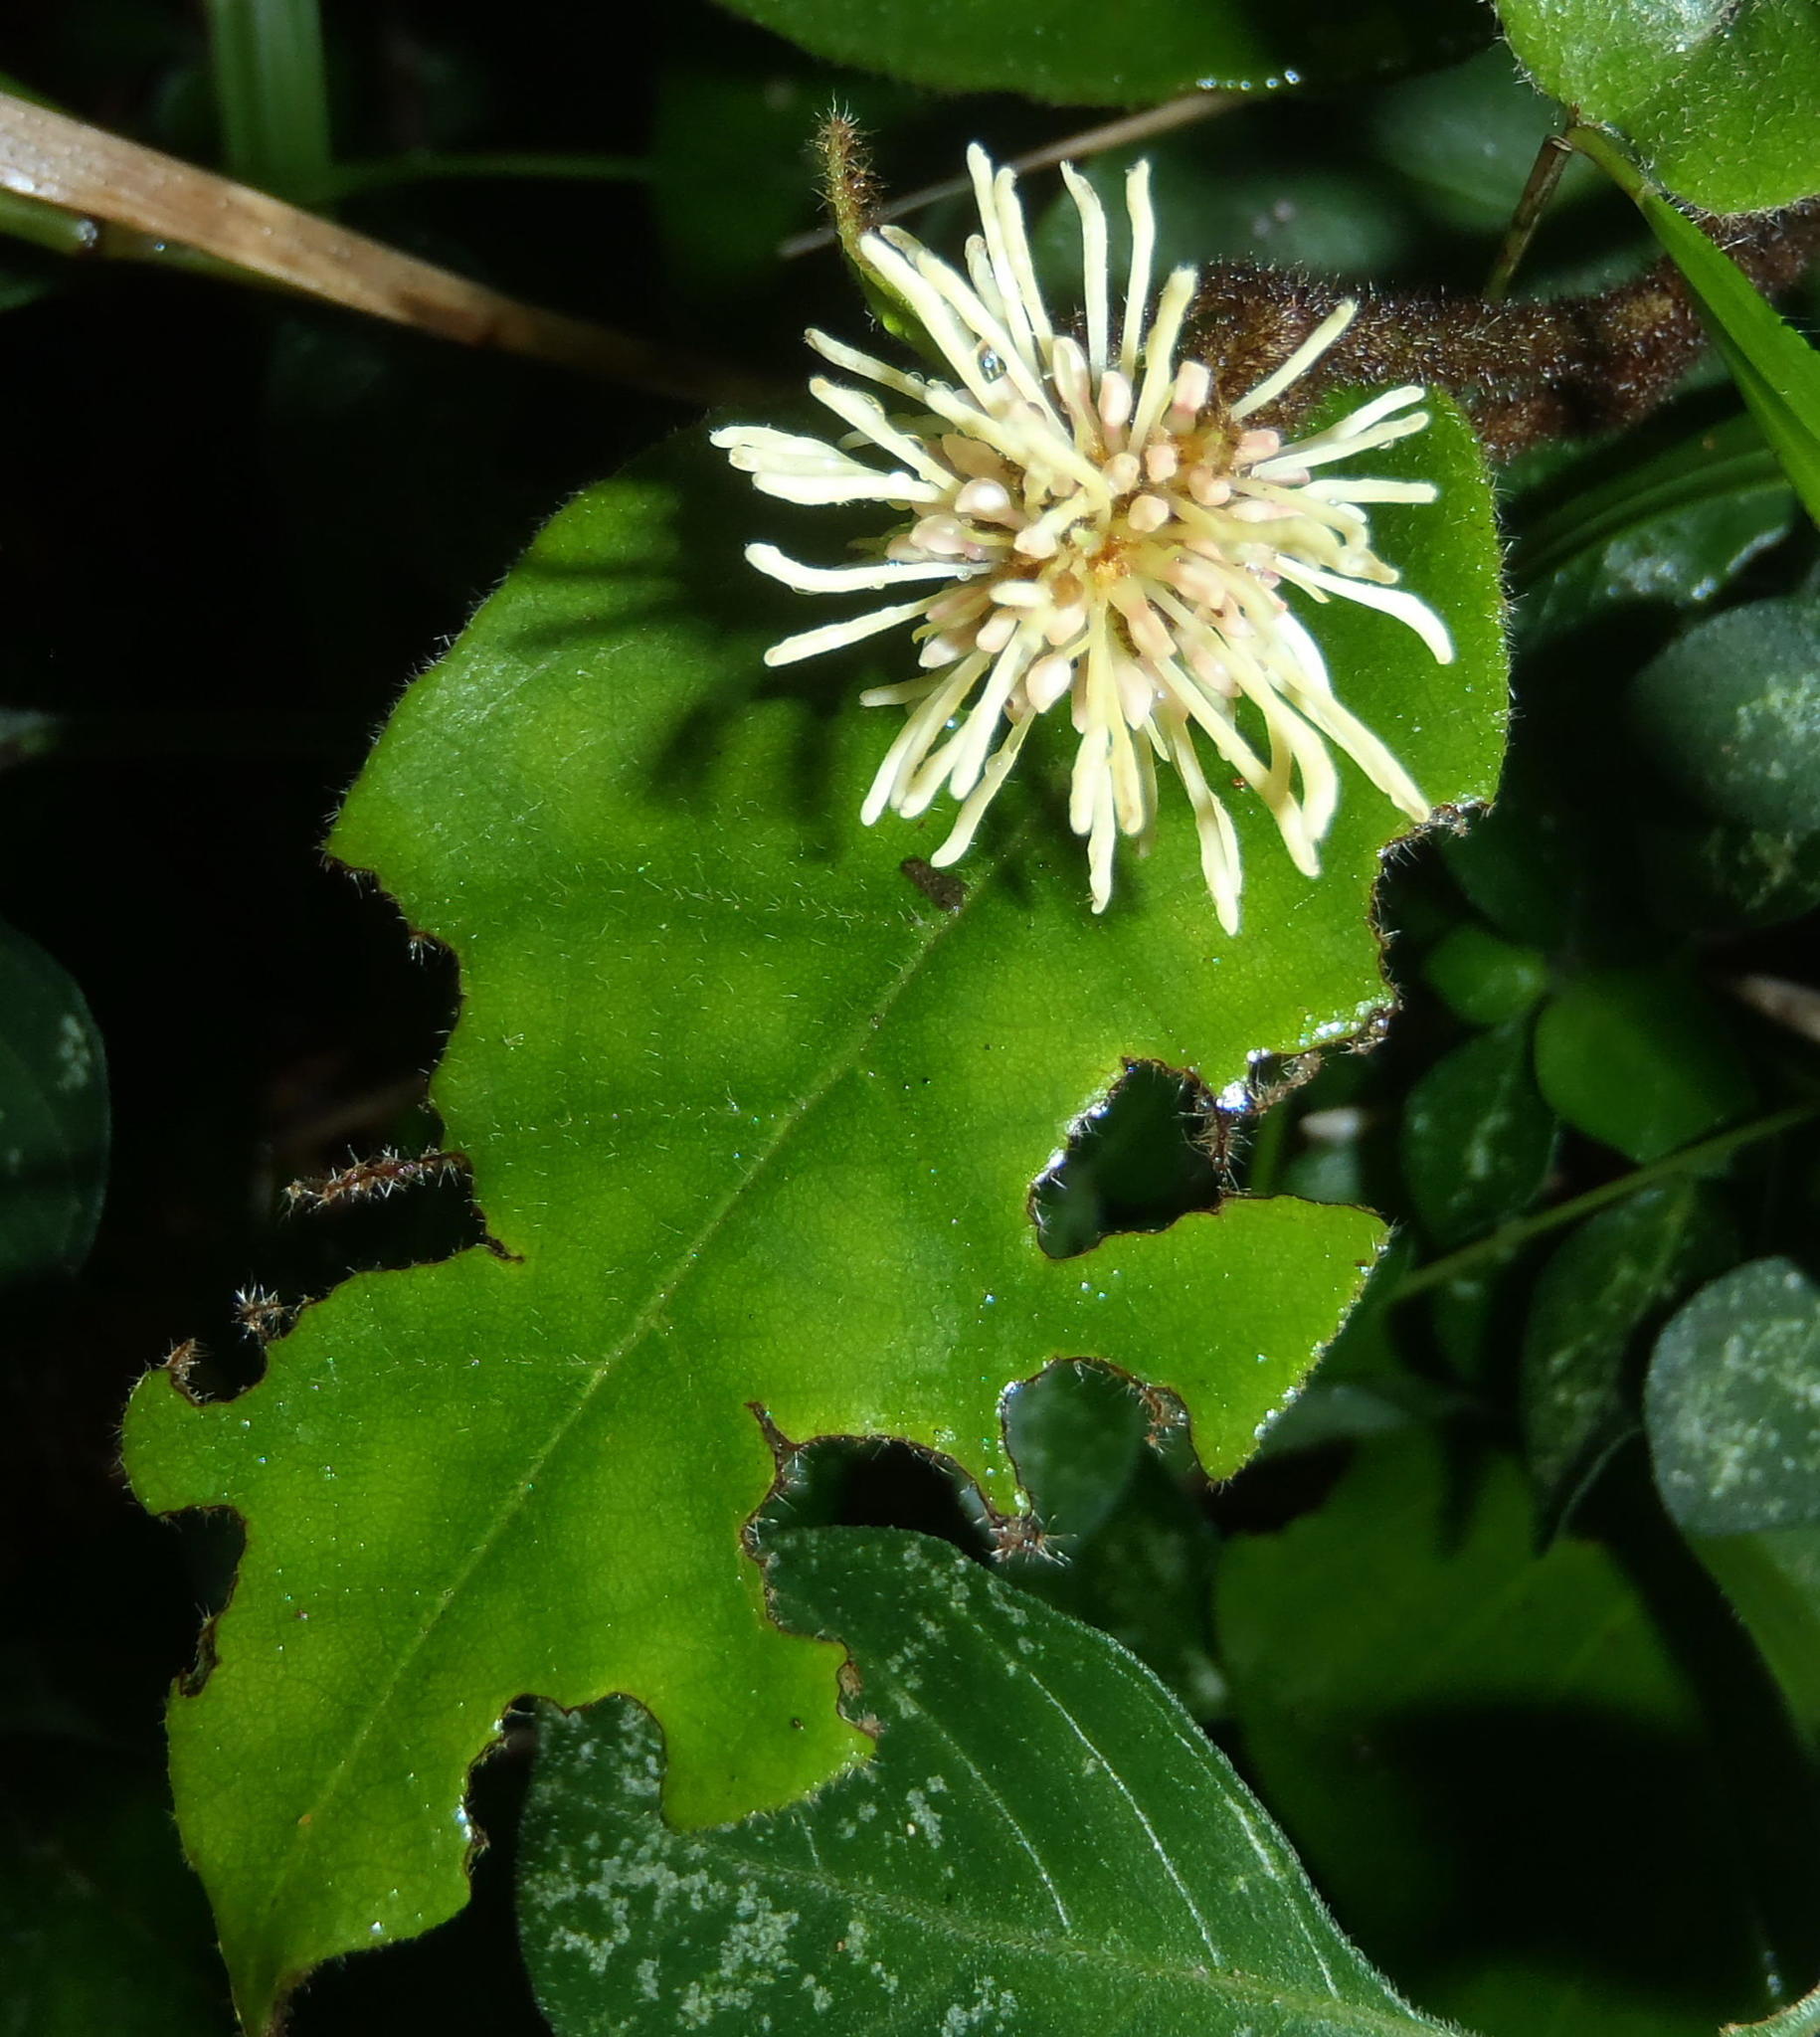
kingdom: Plantae
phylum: Tracheophyta
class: Magnoliopsida
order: Saxifragales
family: Hamamelidaceae
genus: Trichocladus
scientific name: Trichocladus crinitus
